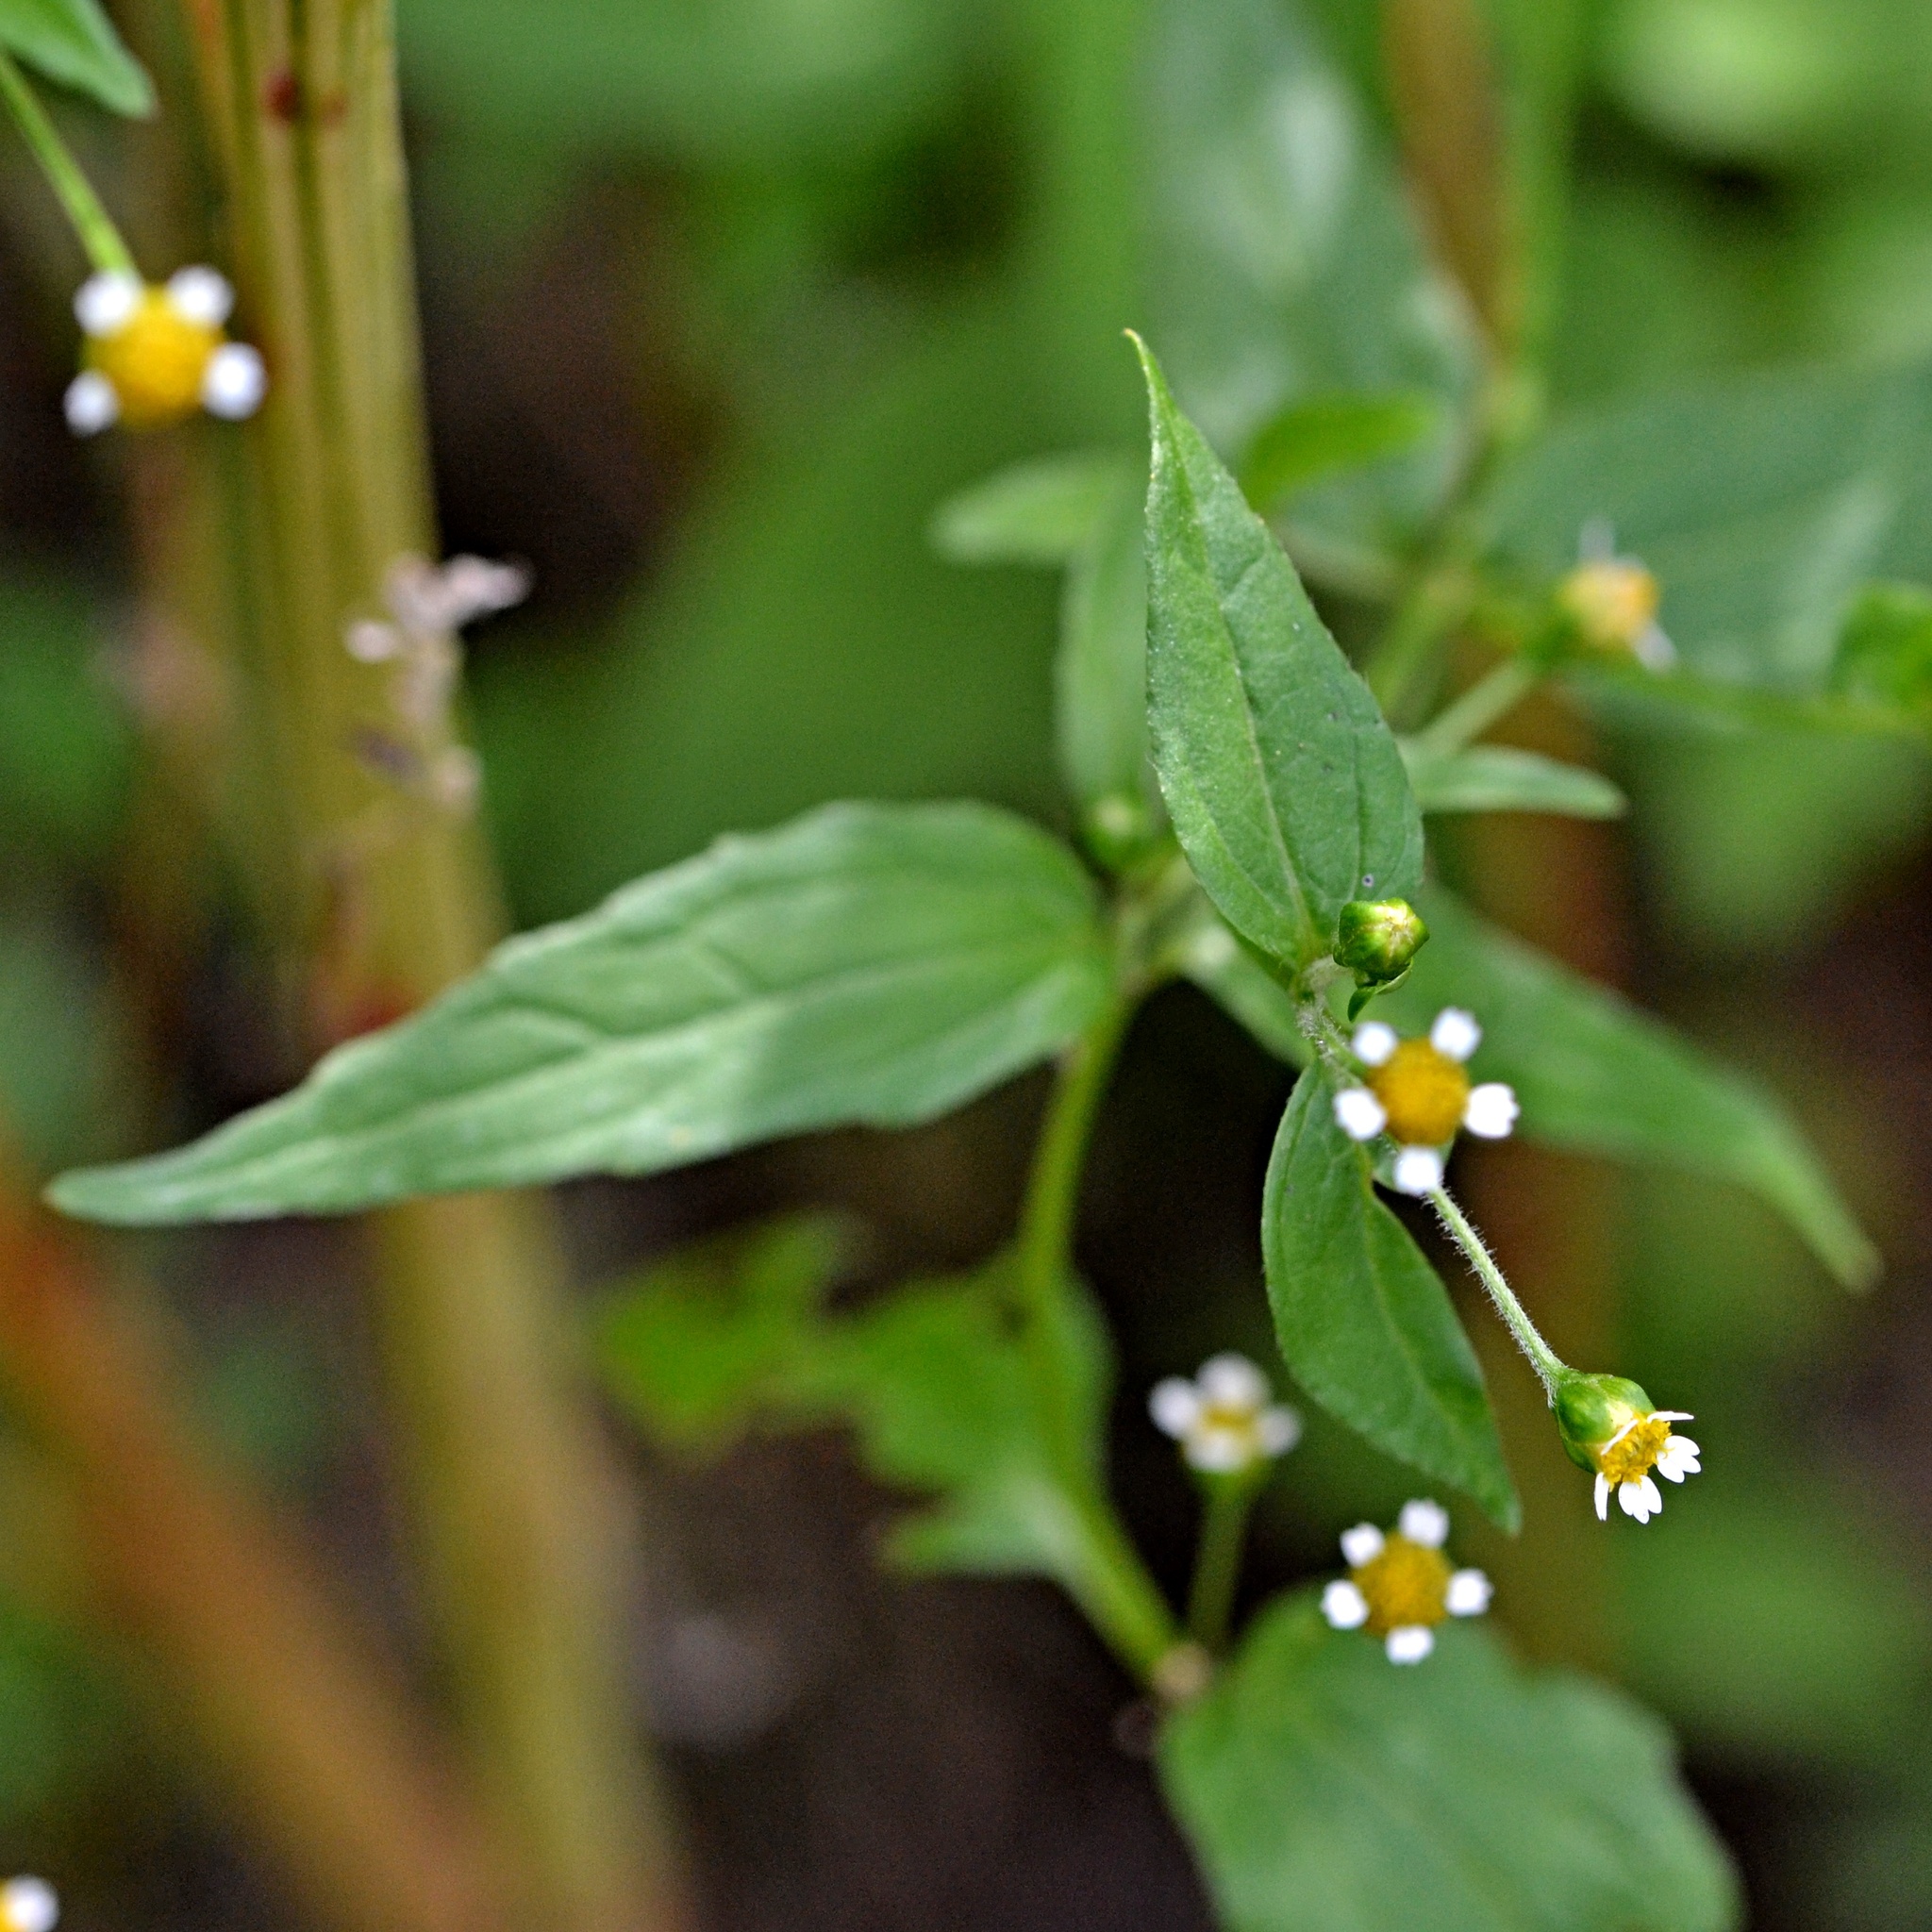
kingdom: Plantae
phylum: Tracheophyta
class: Magnoliopsida
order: Asterales
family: Asteraceae
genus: Galinsoga
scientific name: Galinsoga parviflora
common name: Gallant soldier
